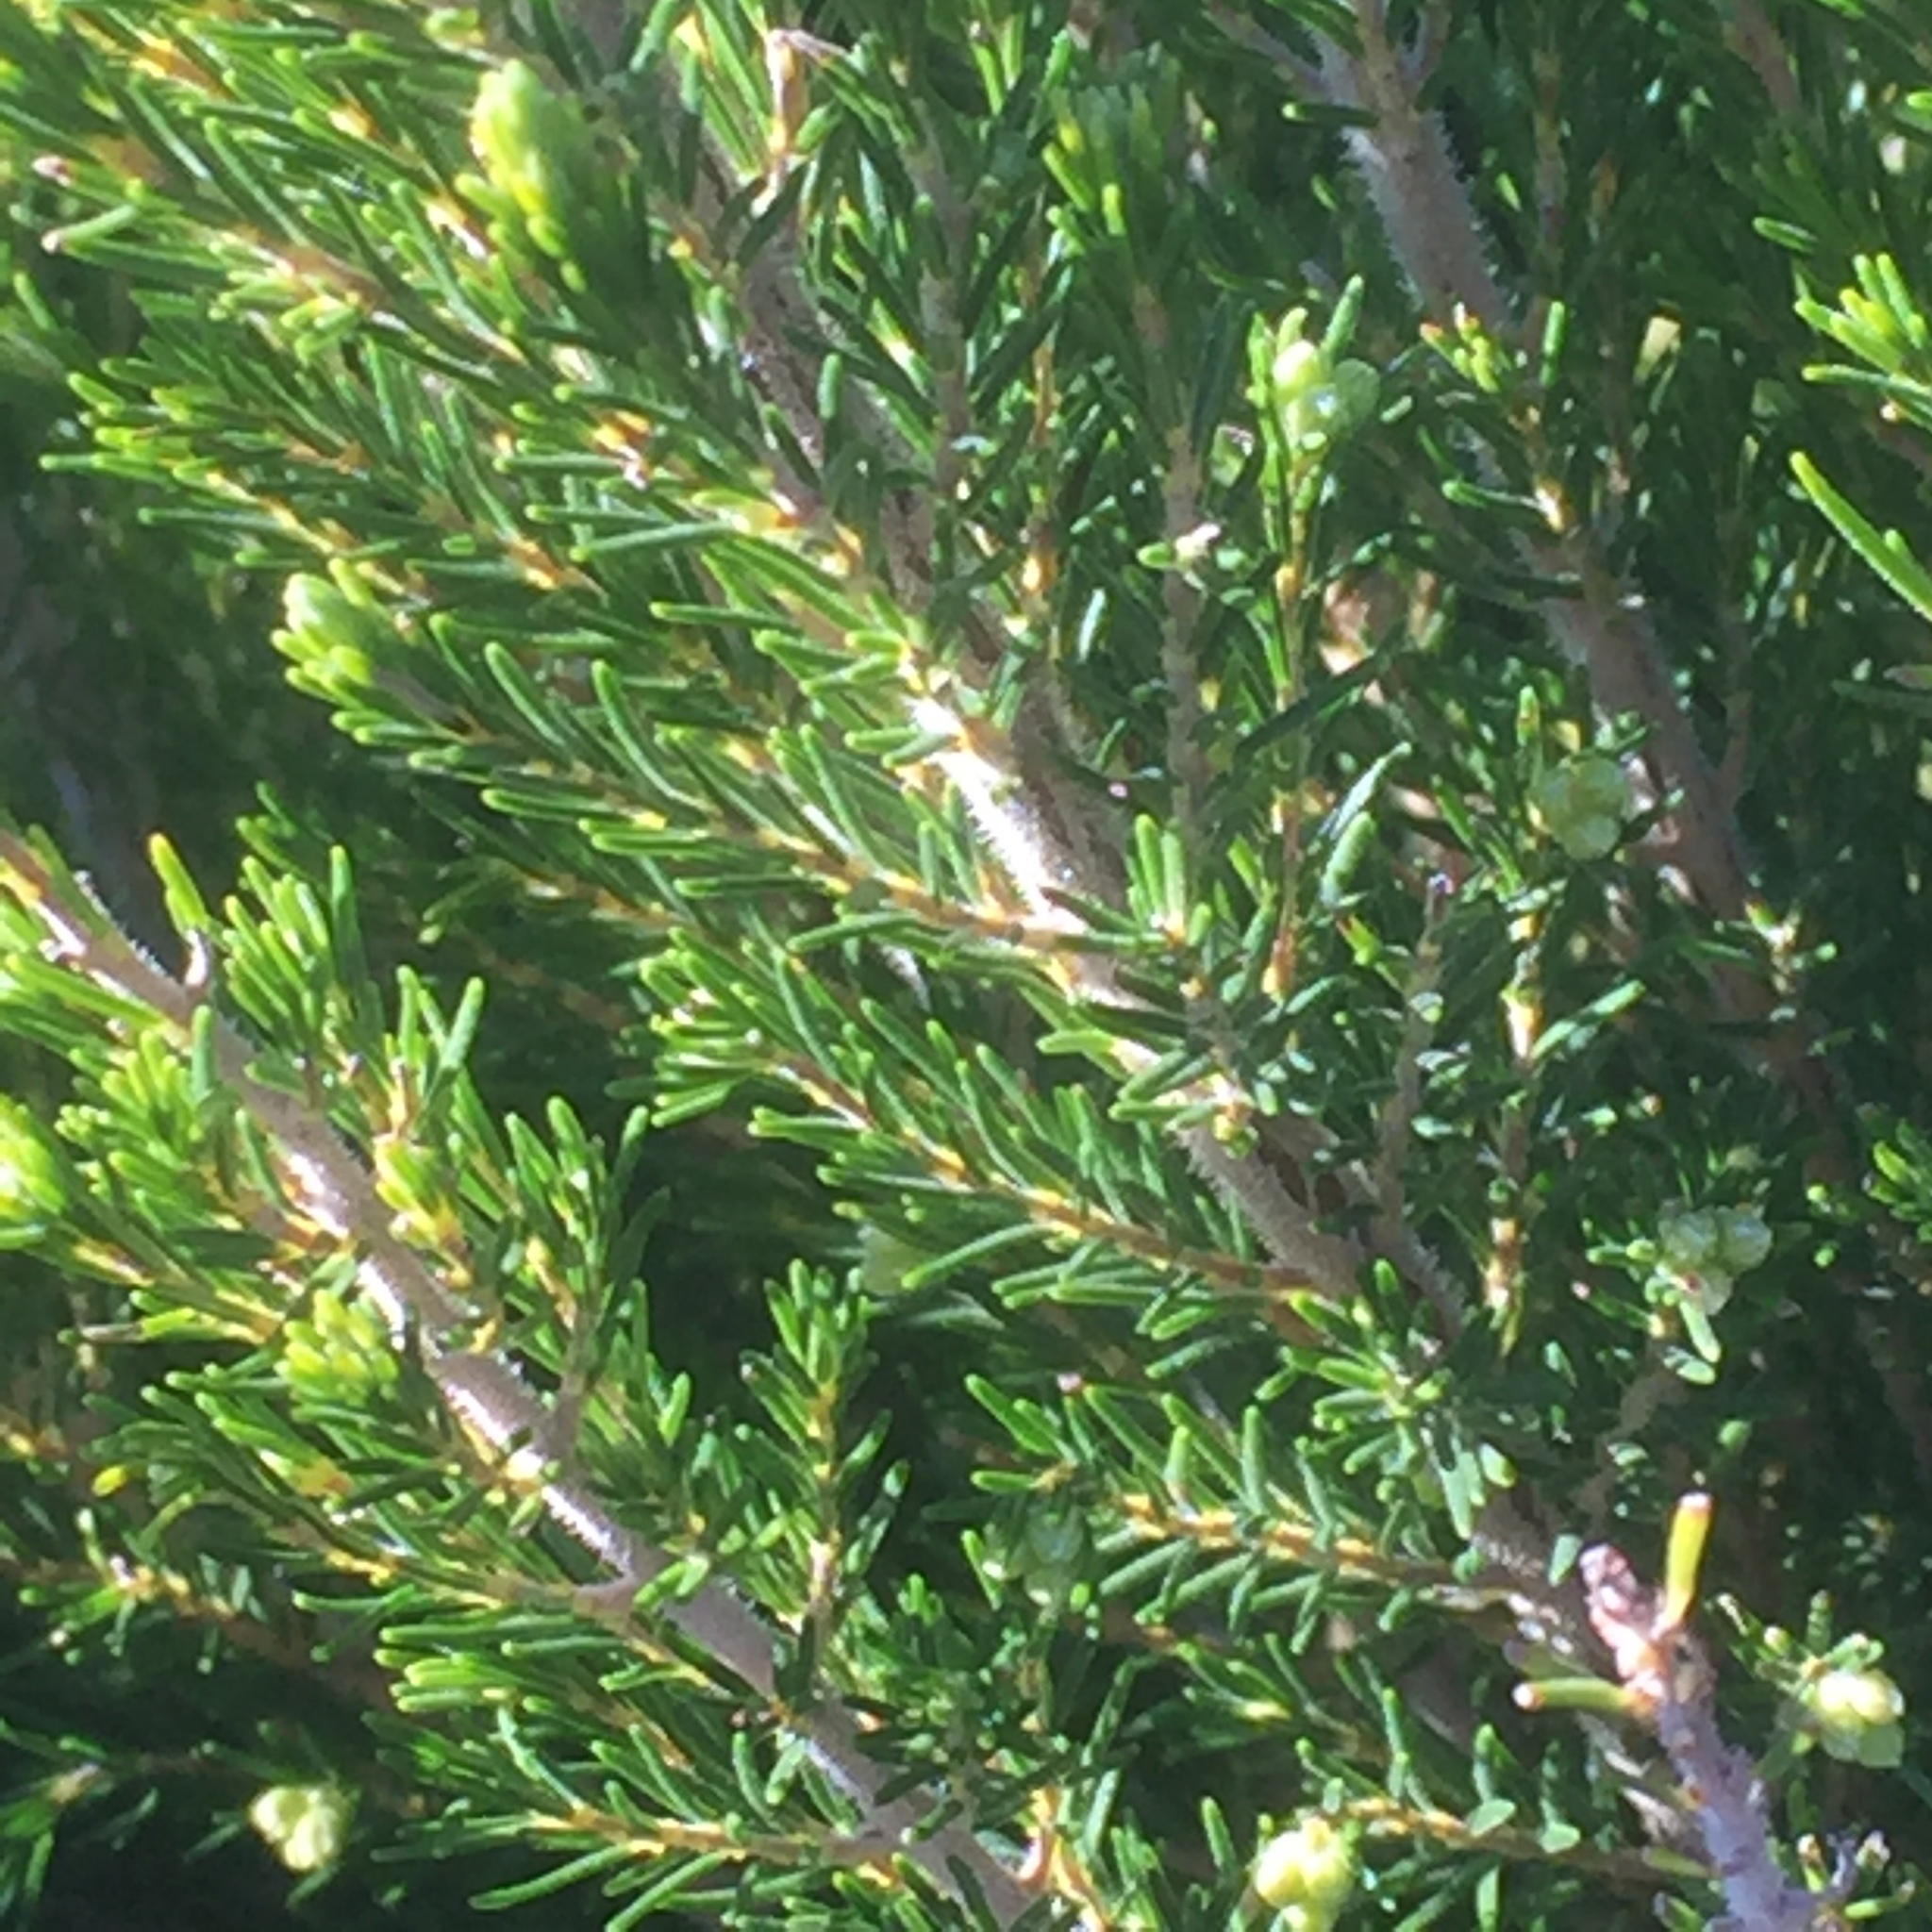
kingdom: Plantae
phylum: Tracheophyta
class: Magnoliopsida
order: Ericales
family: Ericaceae
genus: Erica
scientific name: Erica canariensis
